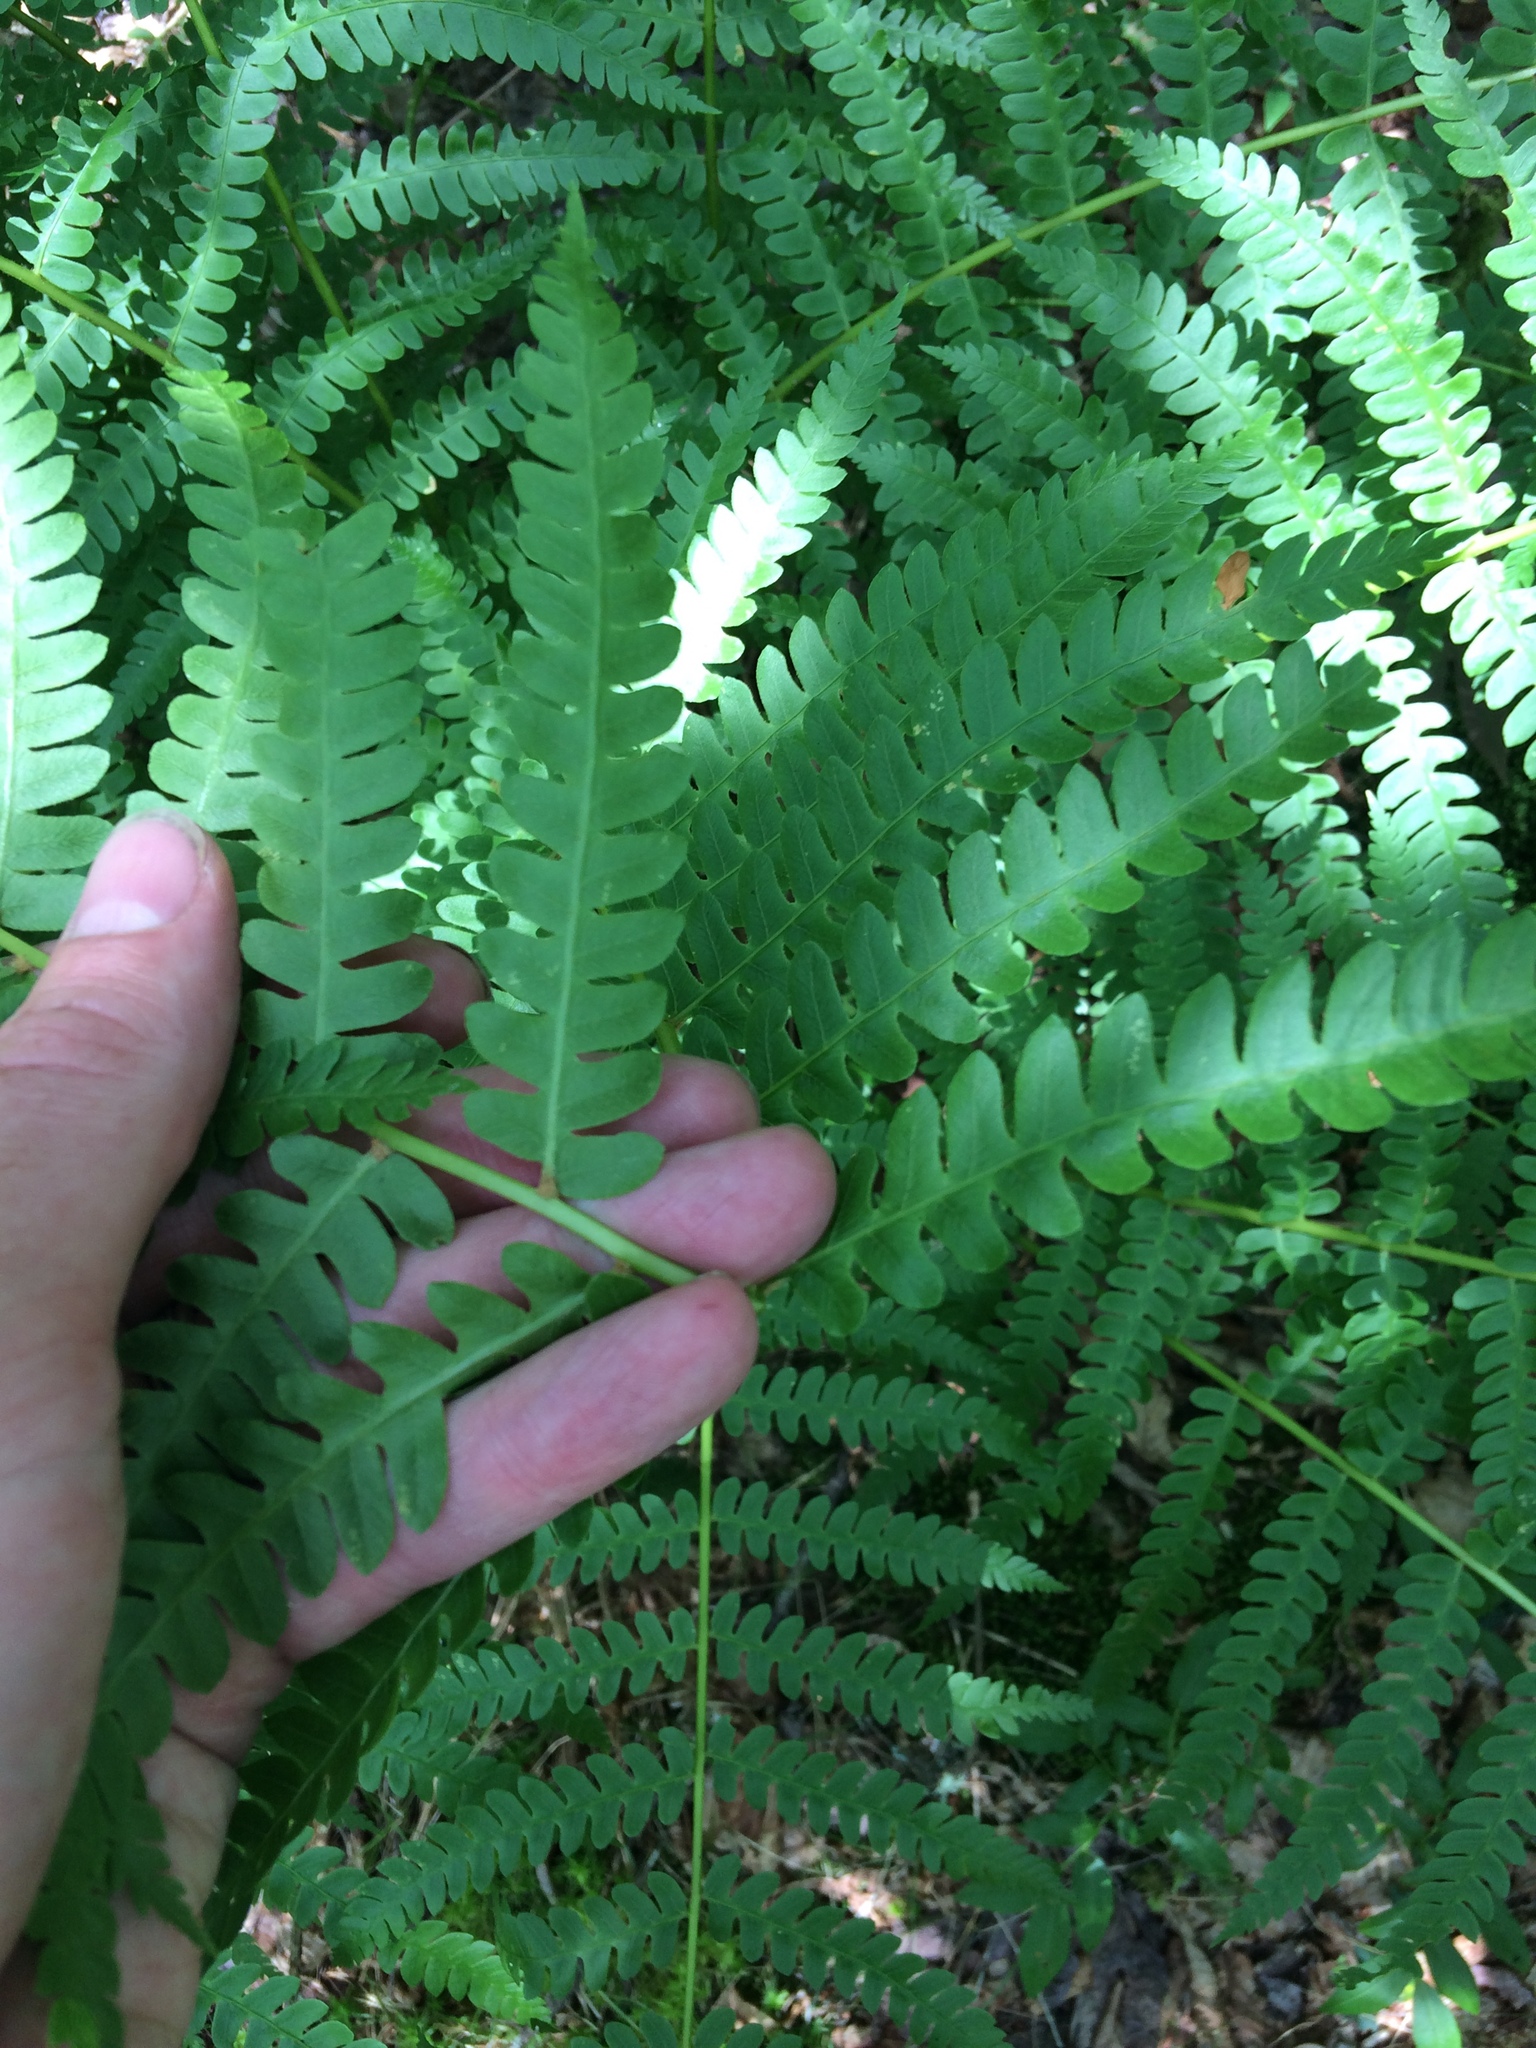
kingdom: Plantae
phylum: Tracheophyta
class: Polypodiopsida
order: Osmundales
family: Osmundaceae
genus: Osmundastrum
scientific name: Osmundastrum cinnamomeum
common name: Cinnamon fern
